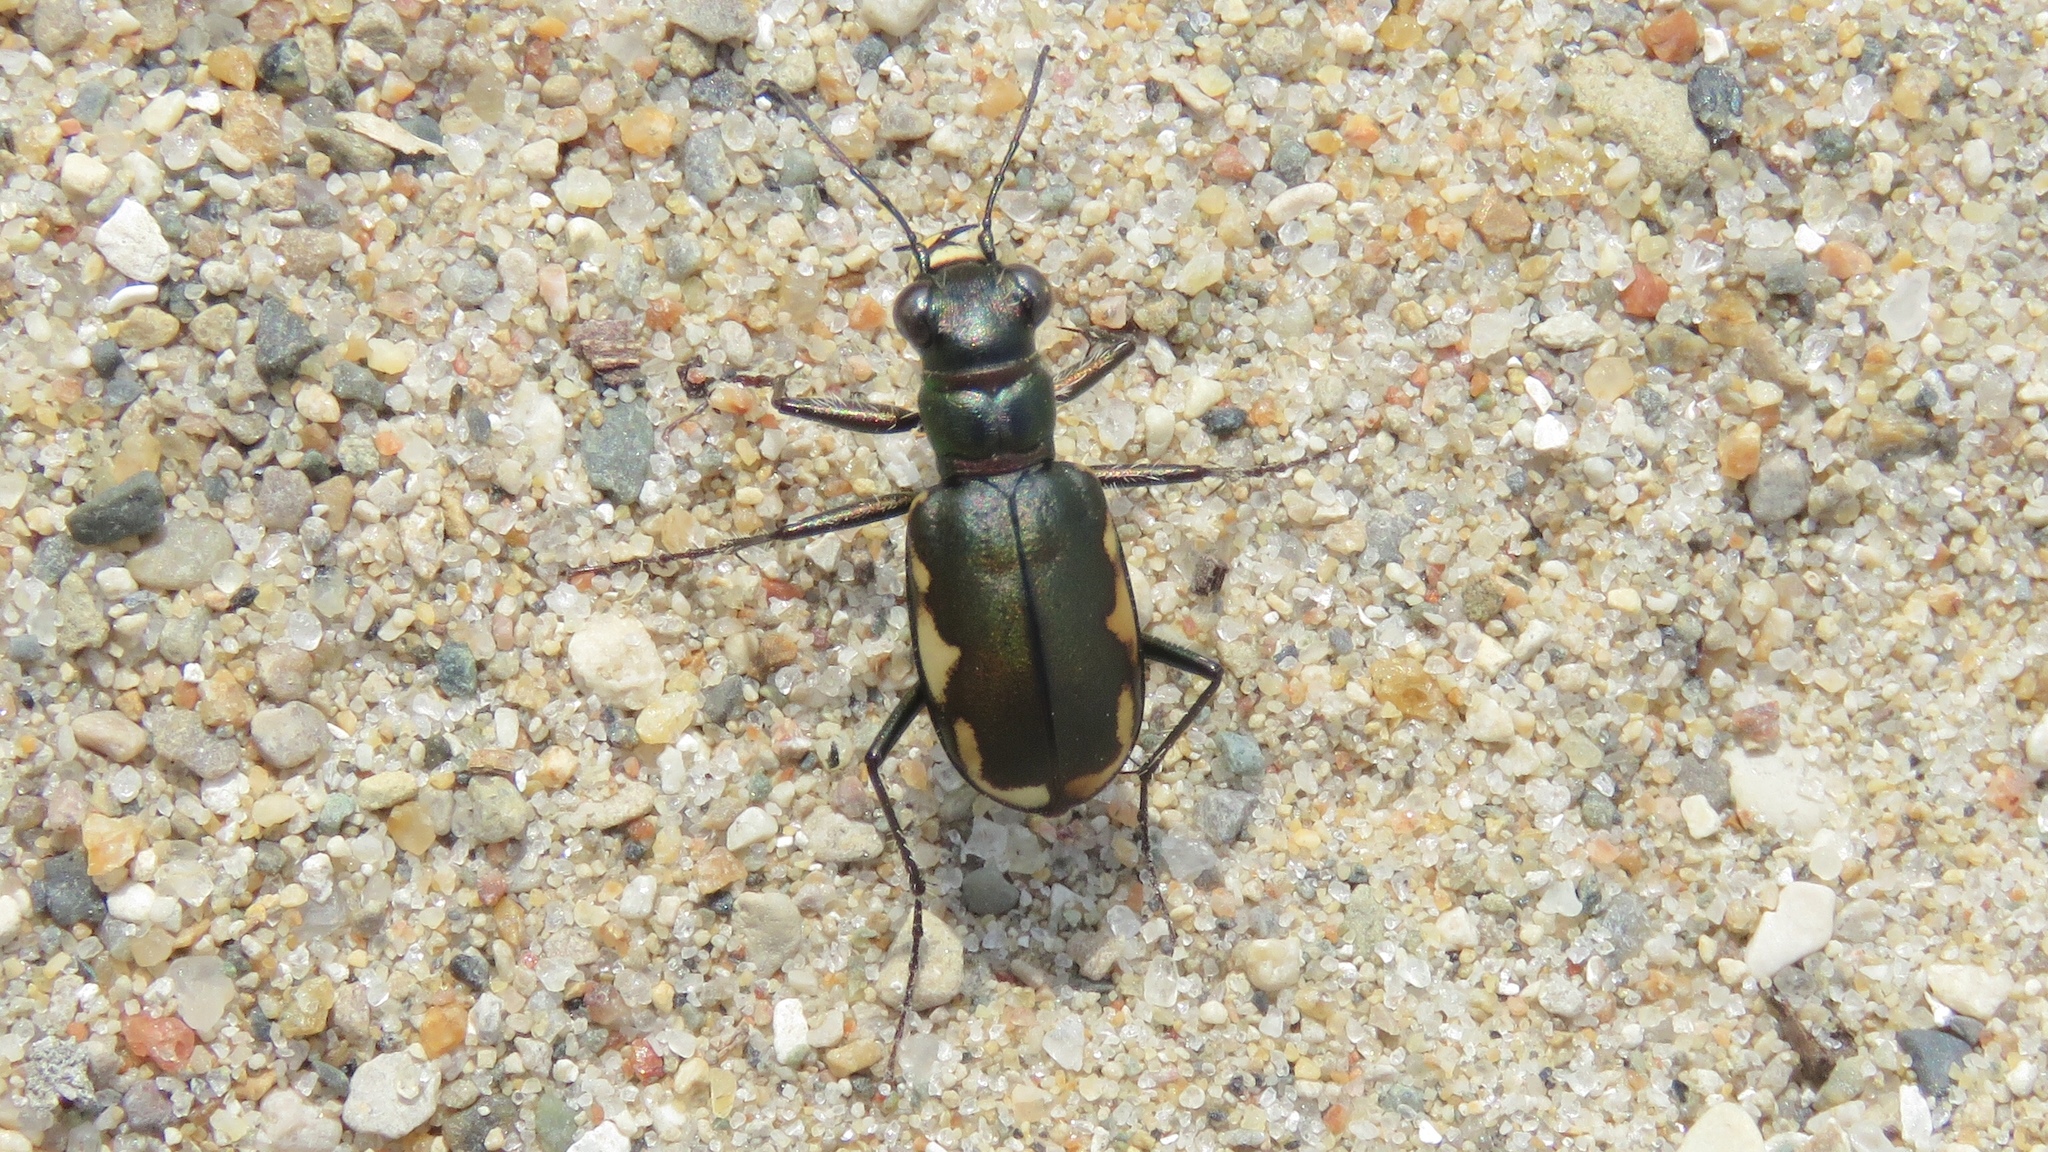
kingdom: Animalia
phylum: Arthropoda
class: Insecta
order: Coleoptera
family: Carabidae
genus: Cicindela
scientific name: Cicindela scutellaris
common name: Festive tiger beetle
